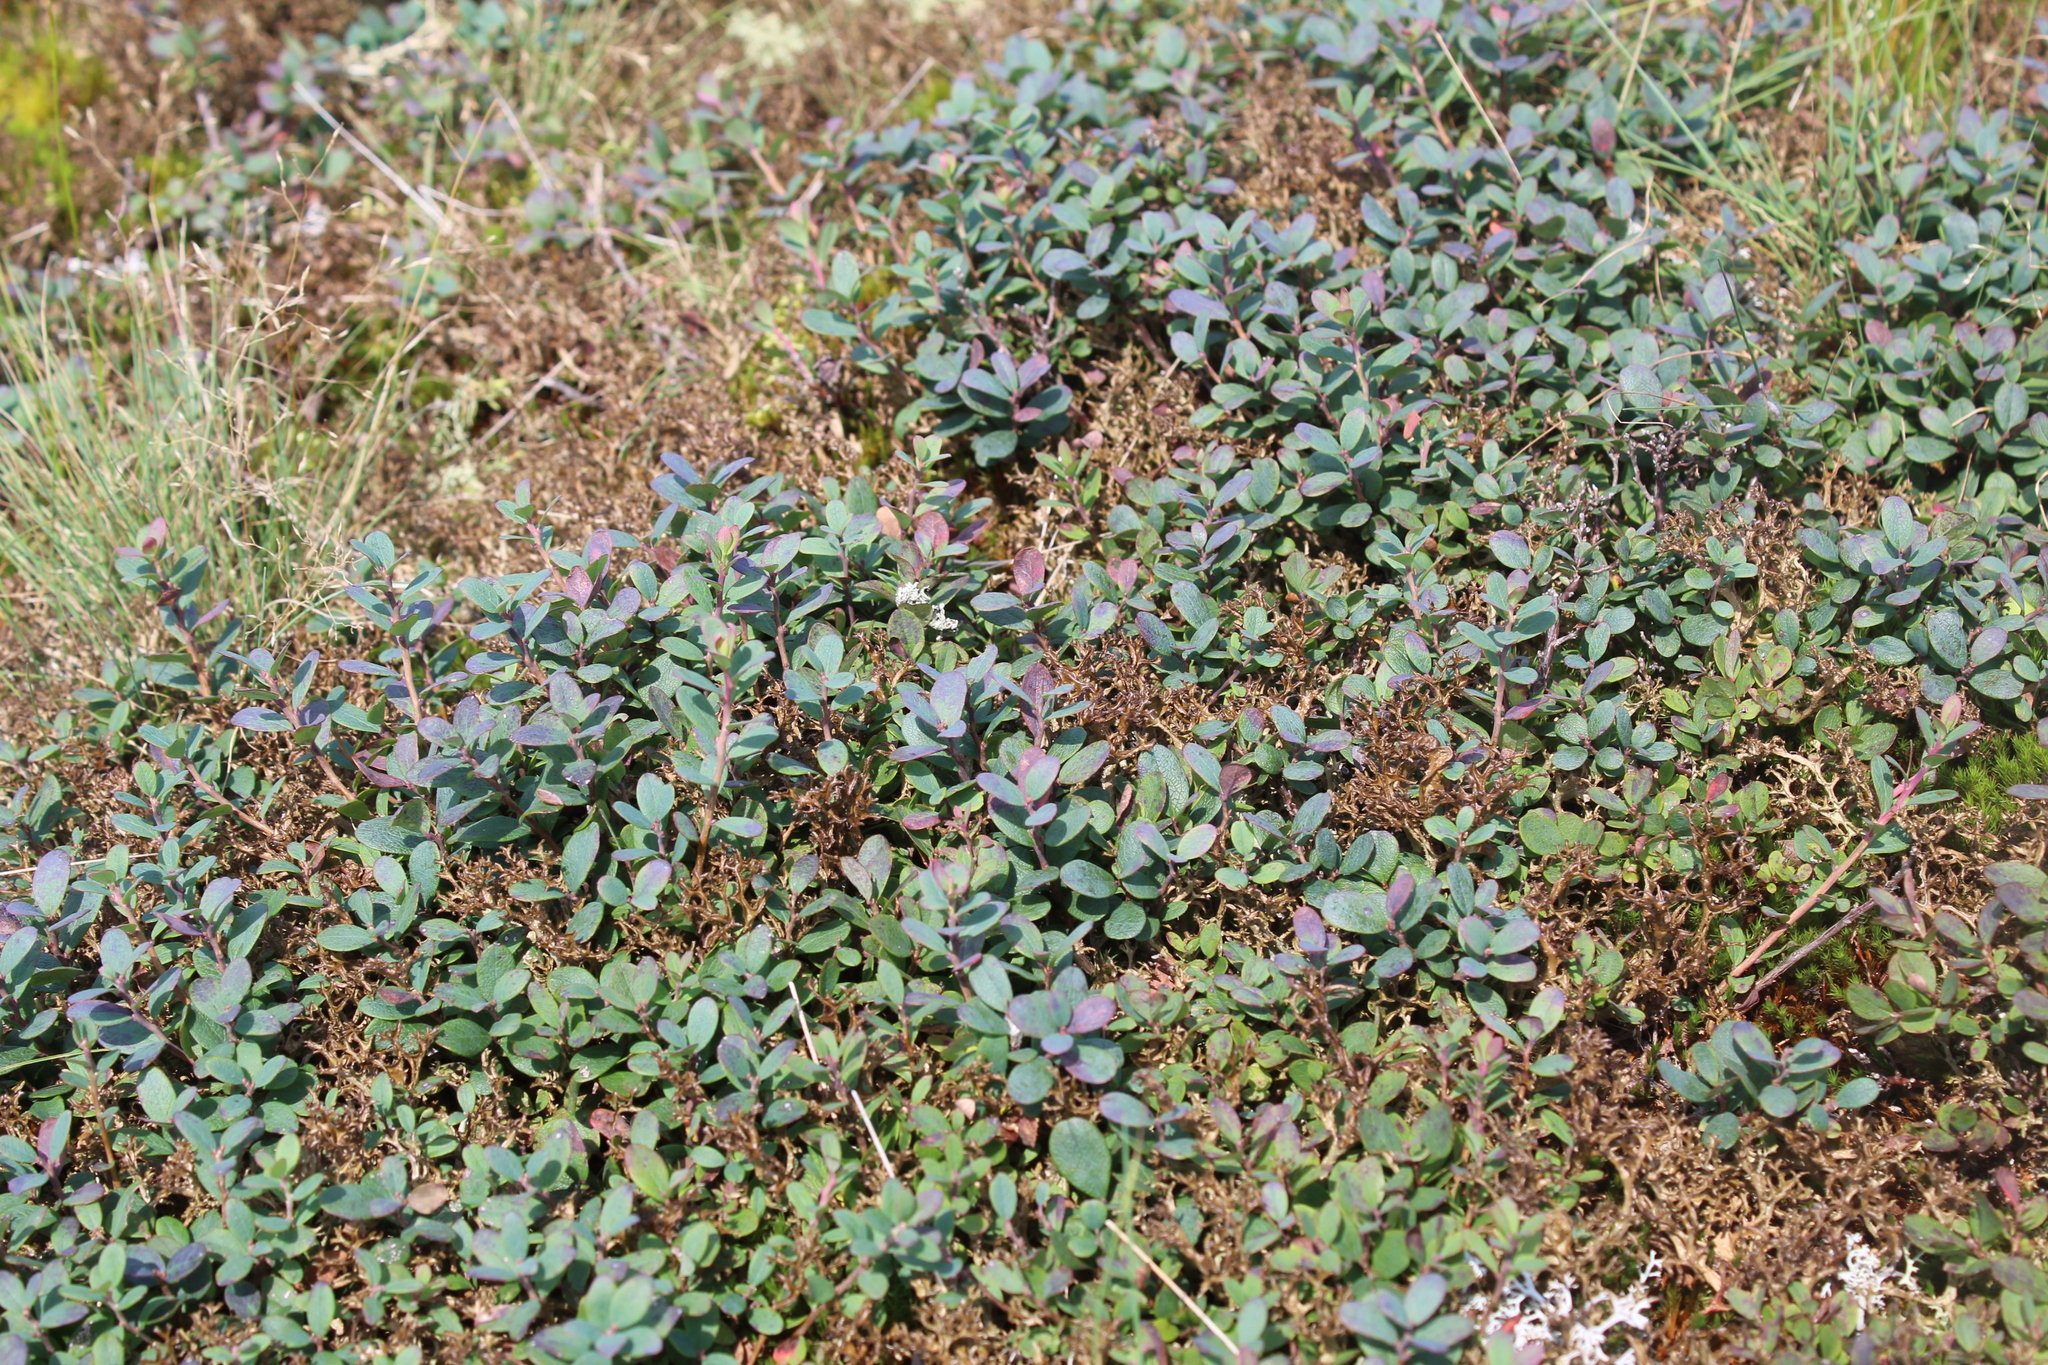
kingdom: Plantae
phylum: Tracheophyta
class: Magnoliopsida
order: Ericales
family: Ericaceae
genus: Vaccinium
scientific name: Vaccinium uliginosum
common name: Bog bilberry
